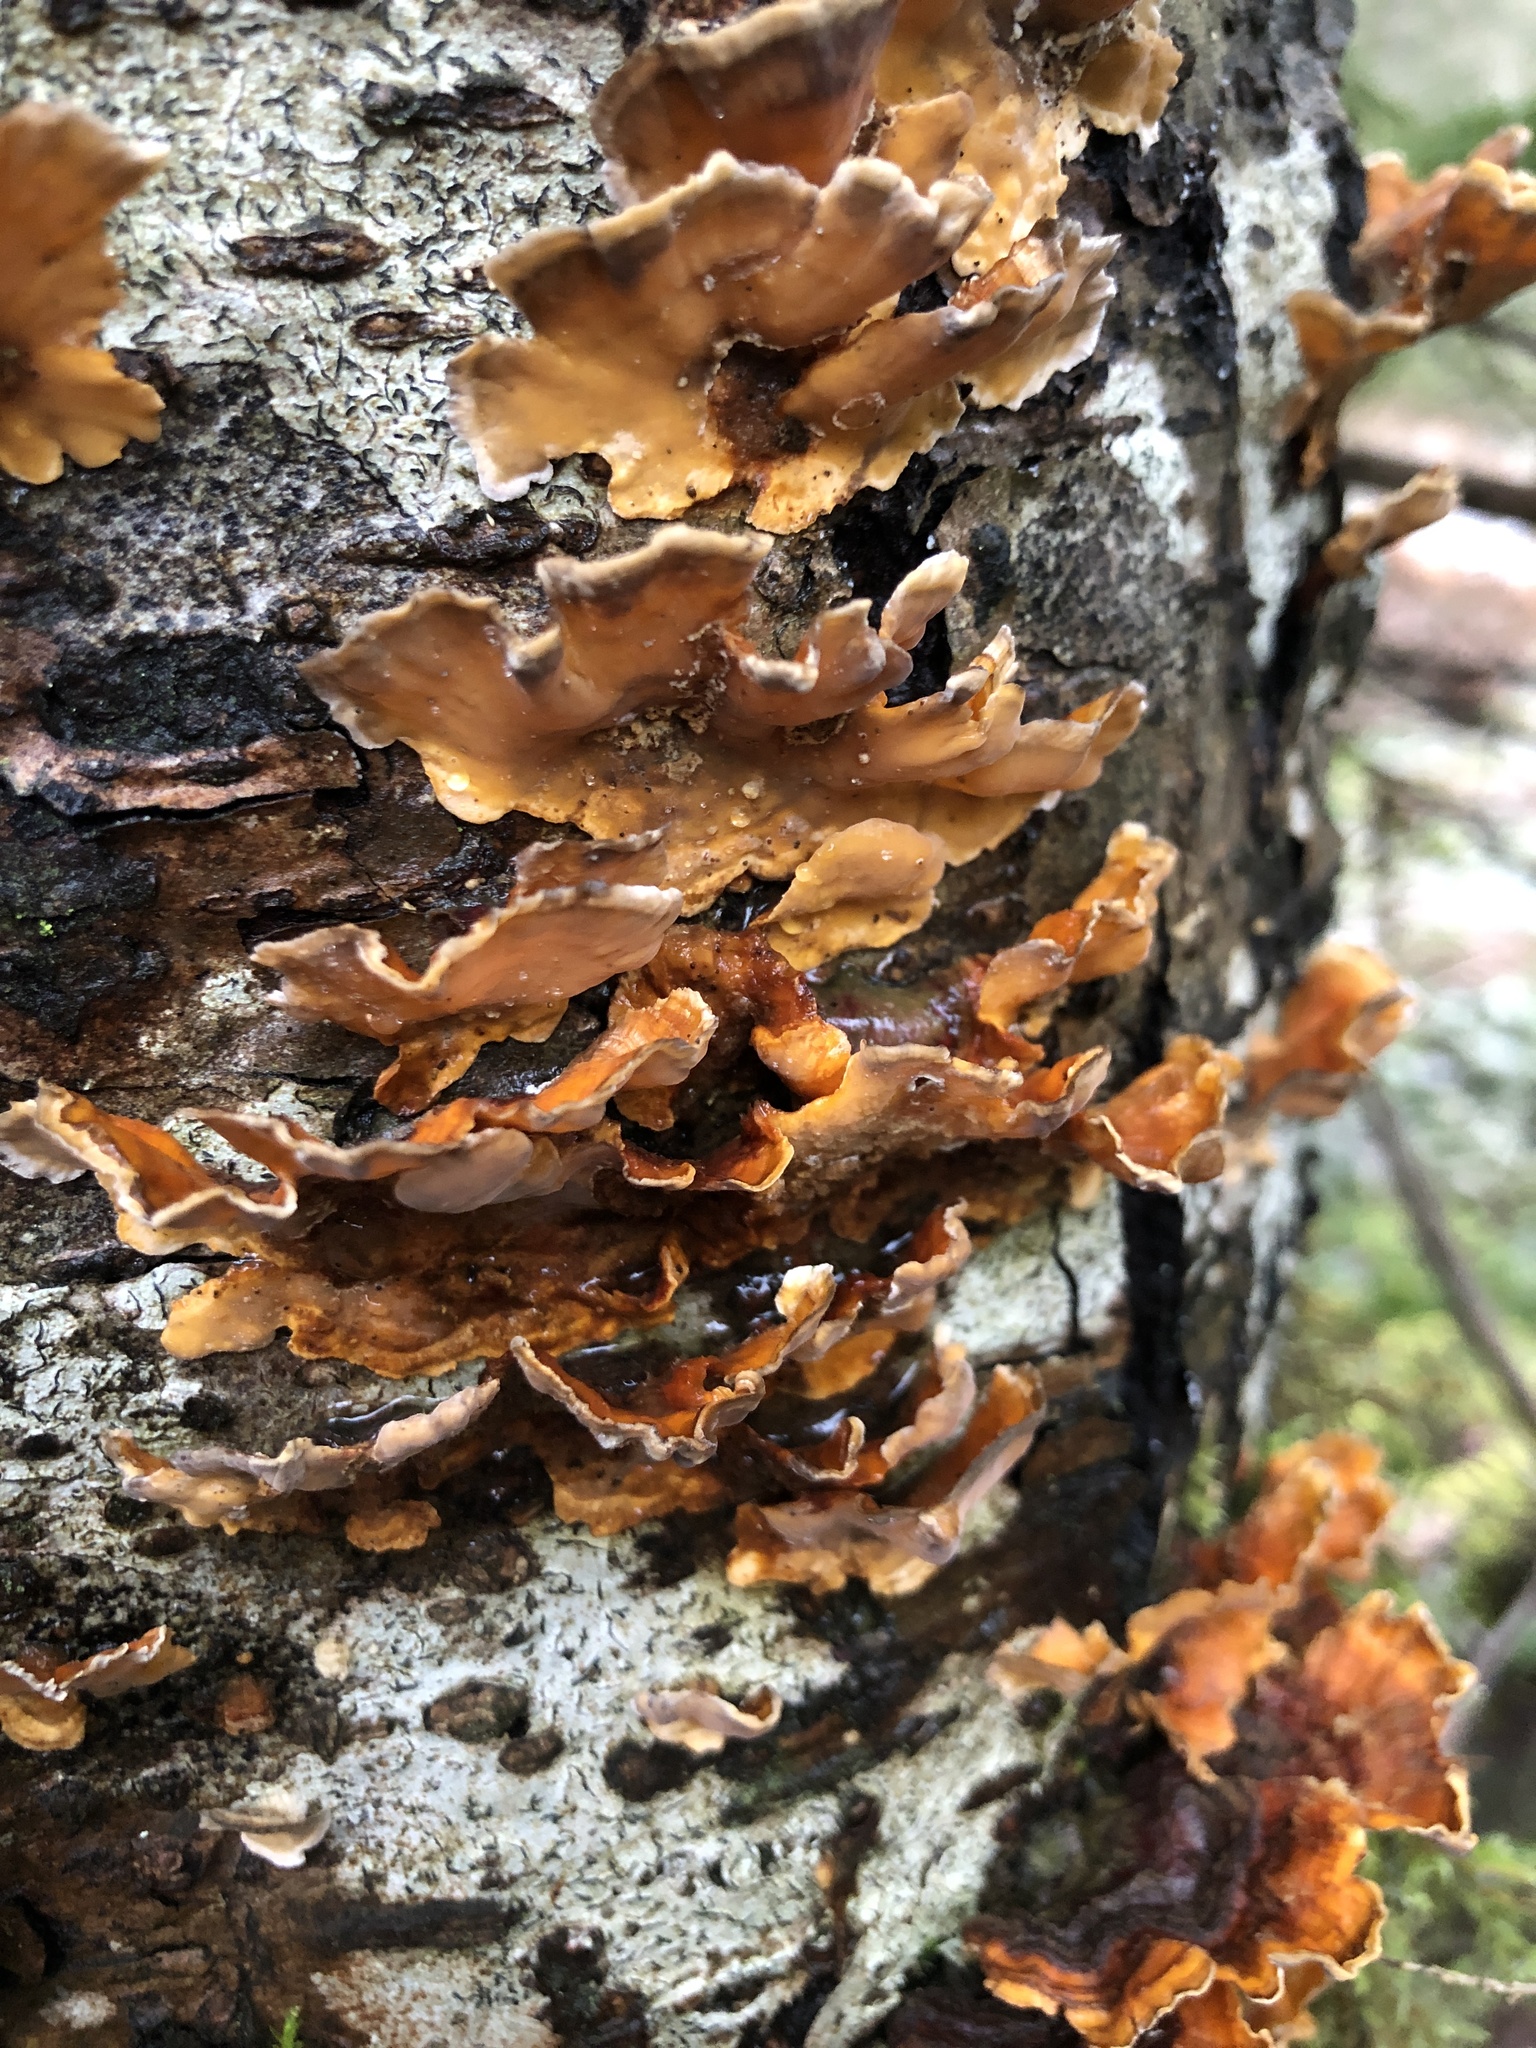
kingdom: Fungi
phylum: Basidiomycota
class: Agaricomycetes
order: Russulales
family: Stereaceae
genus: Stereum
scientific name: Stereum complicatum
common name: Crowded parchment
